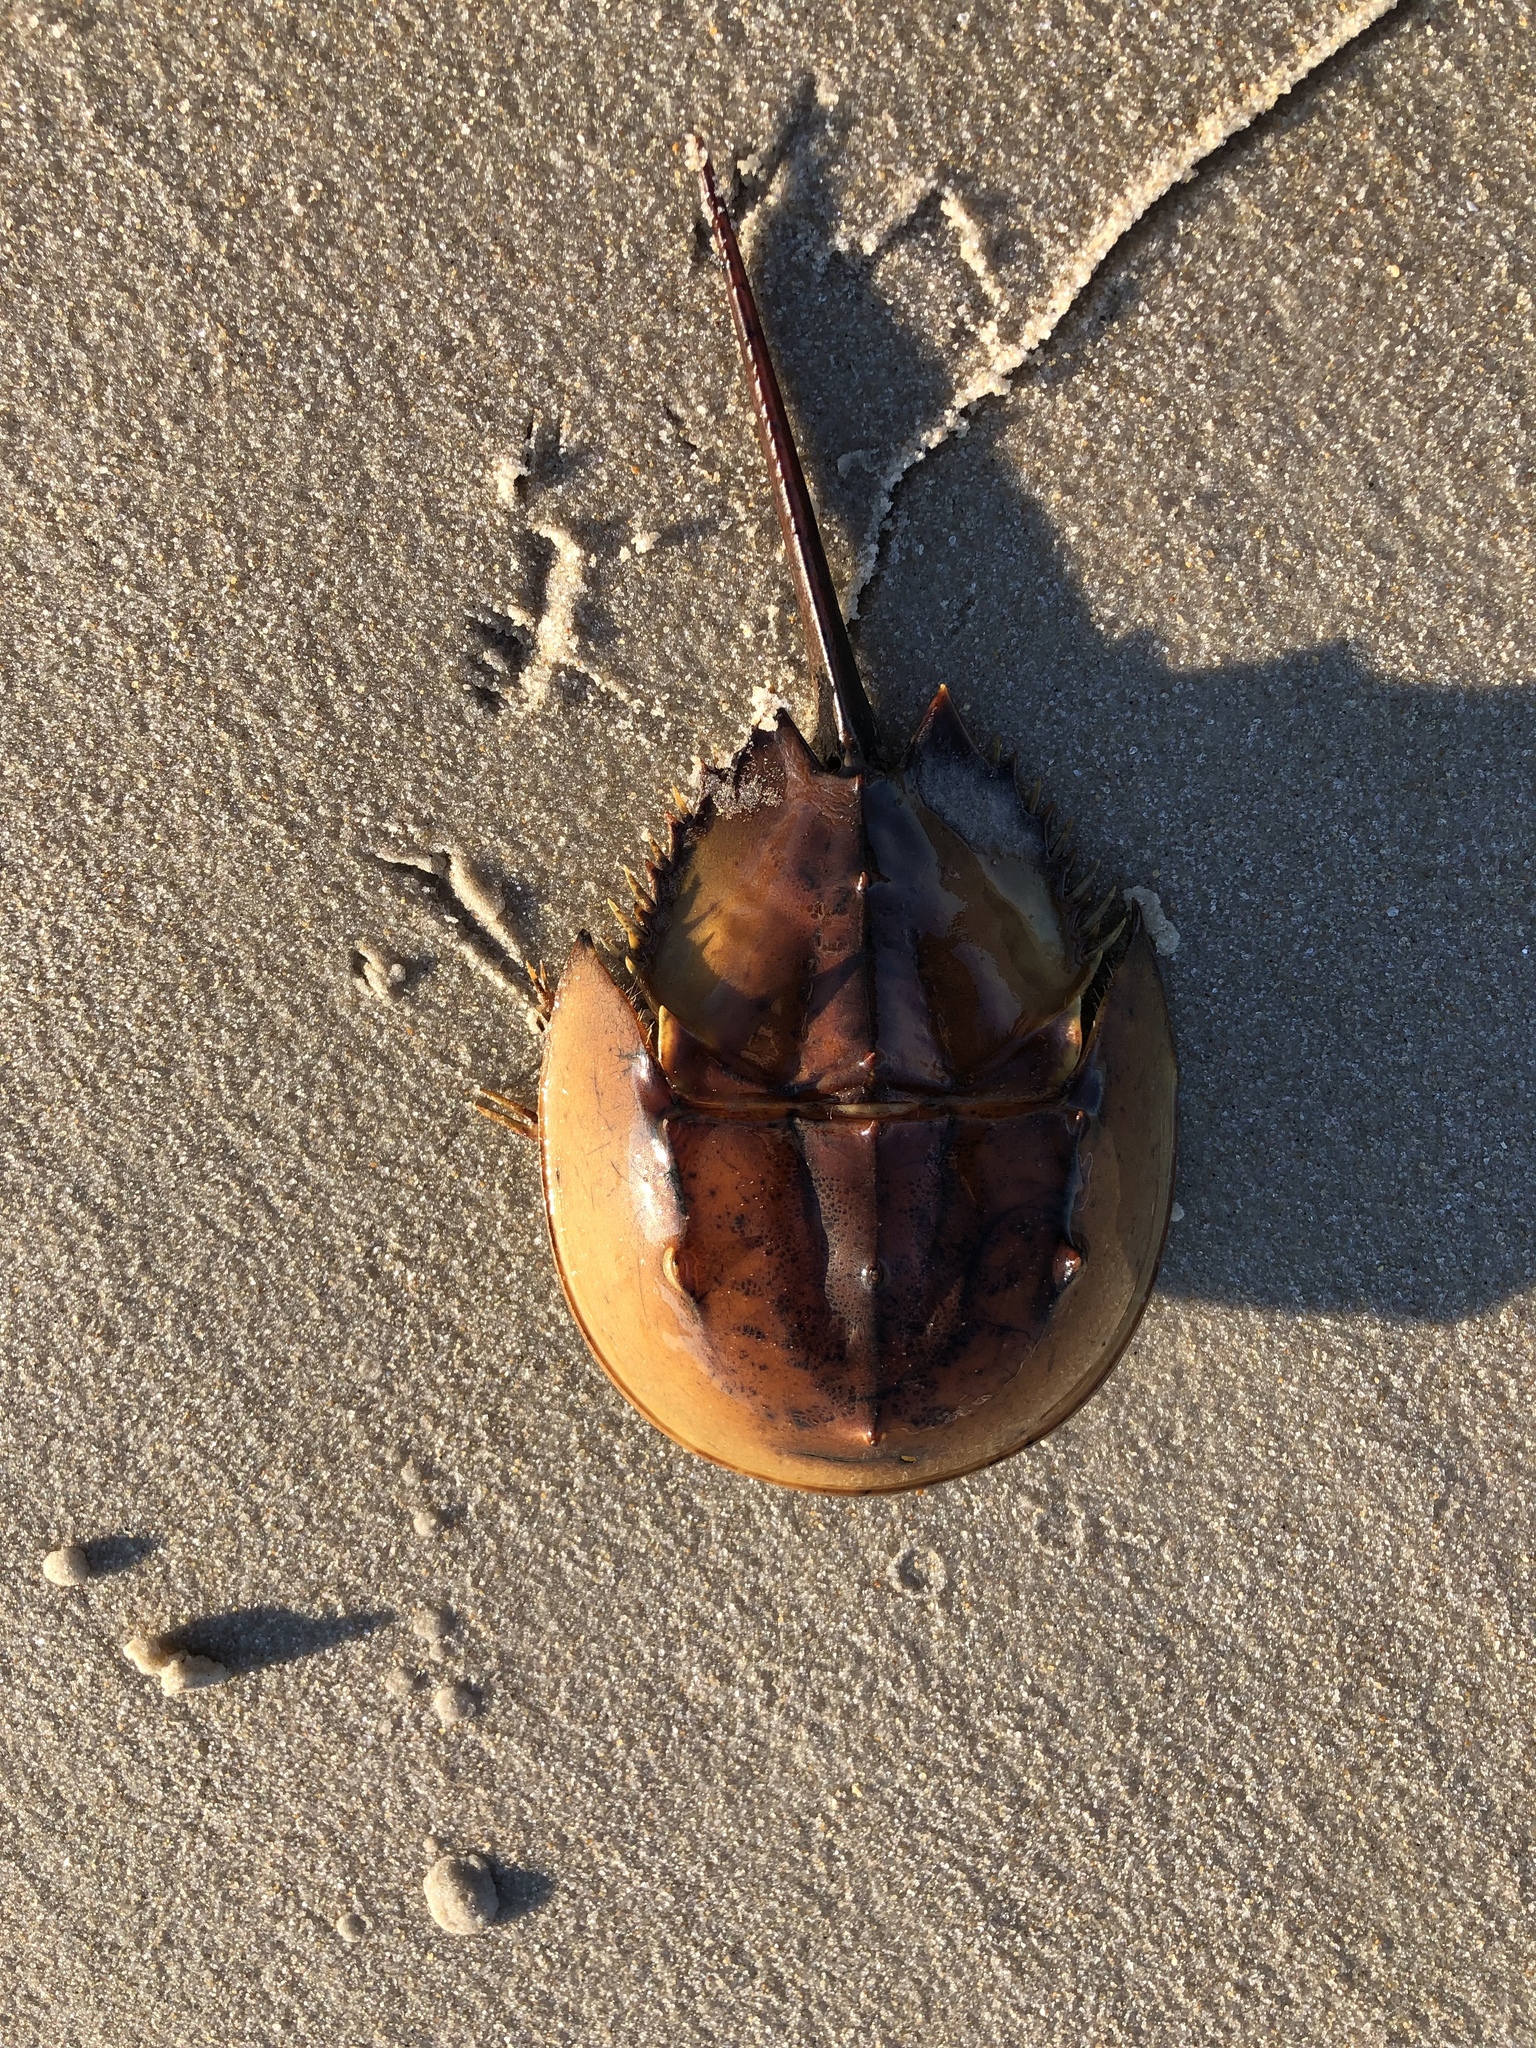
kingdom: Animalia
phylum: Arthropoda
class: Merostomata
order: Xiphosurida
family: Limulidae
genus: Limulus
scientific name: Limulus polyphemus
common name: Horseshoe crab
